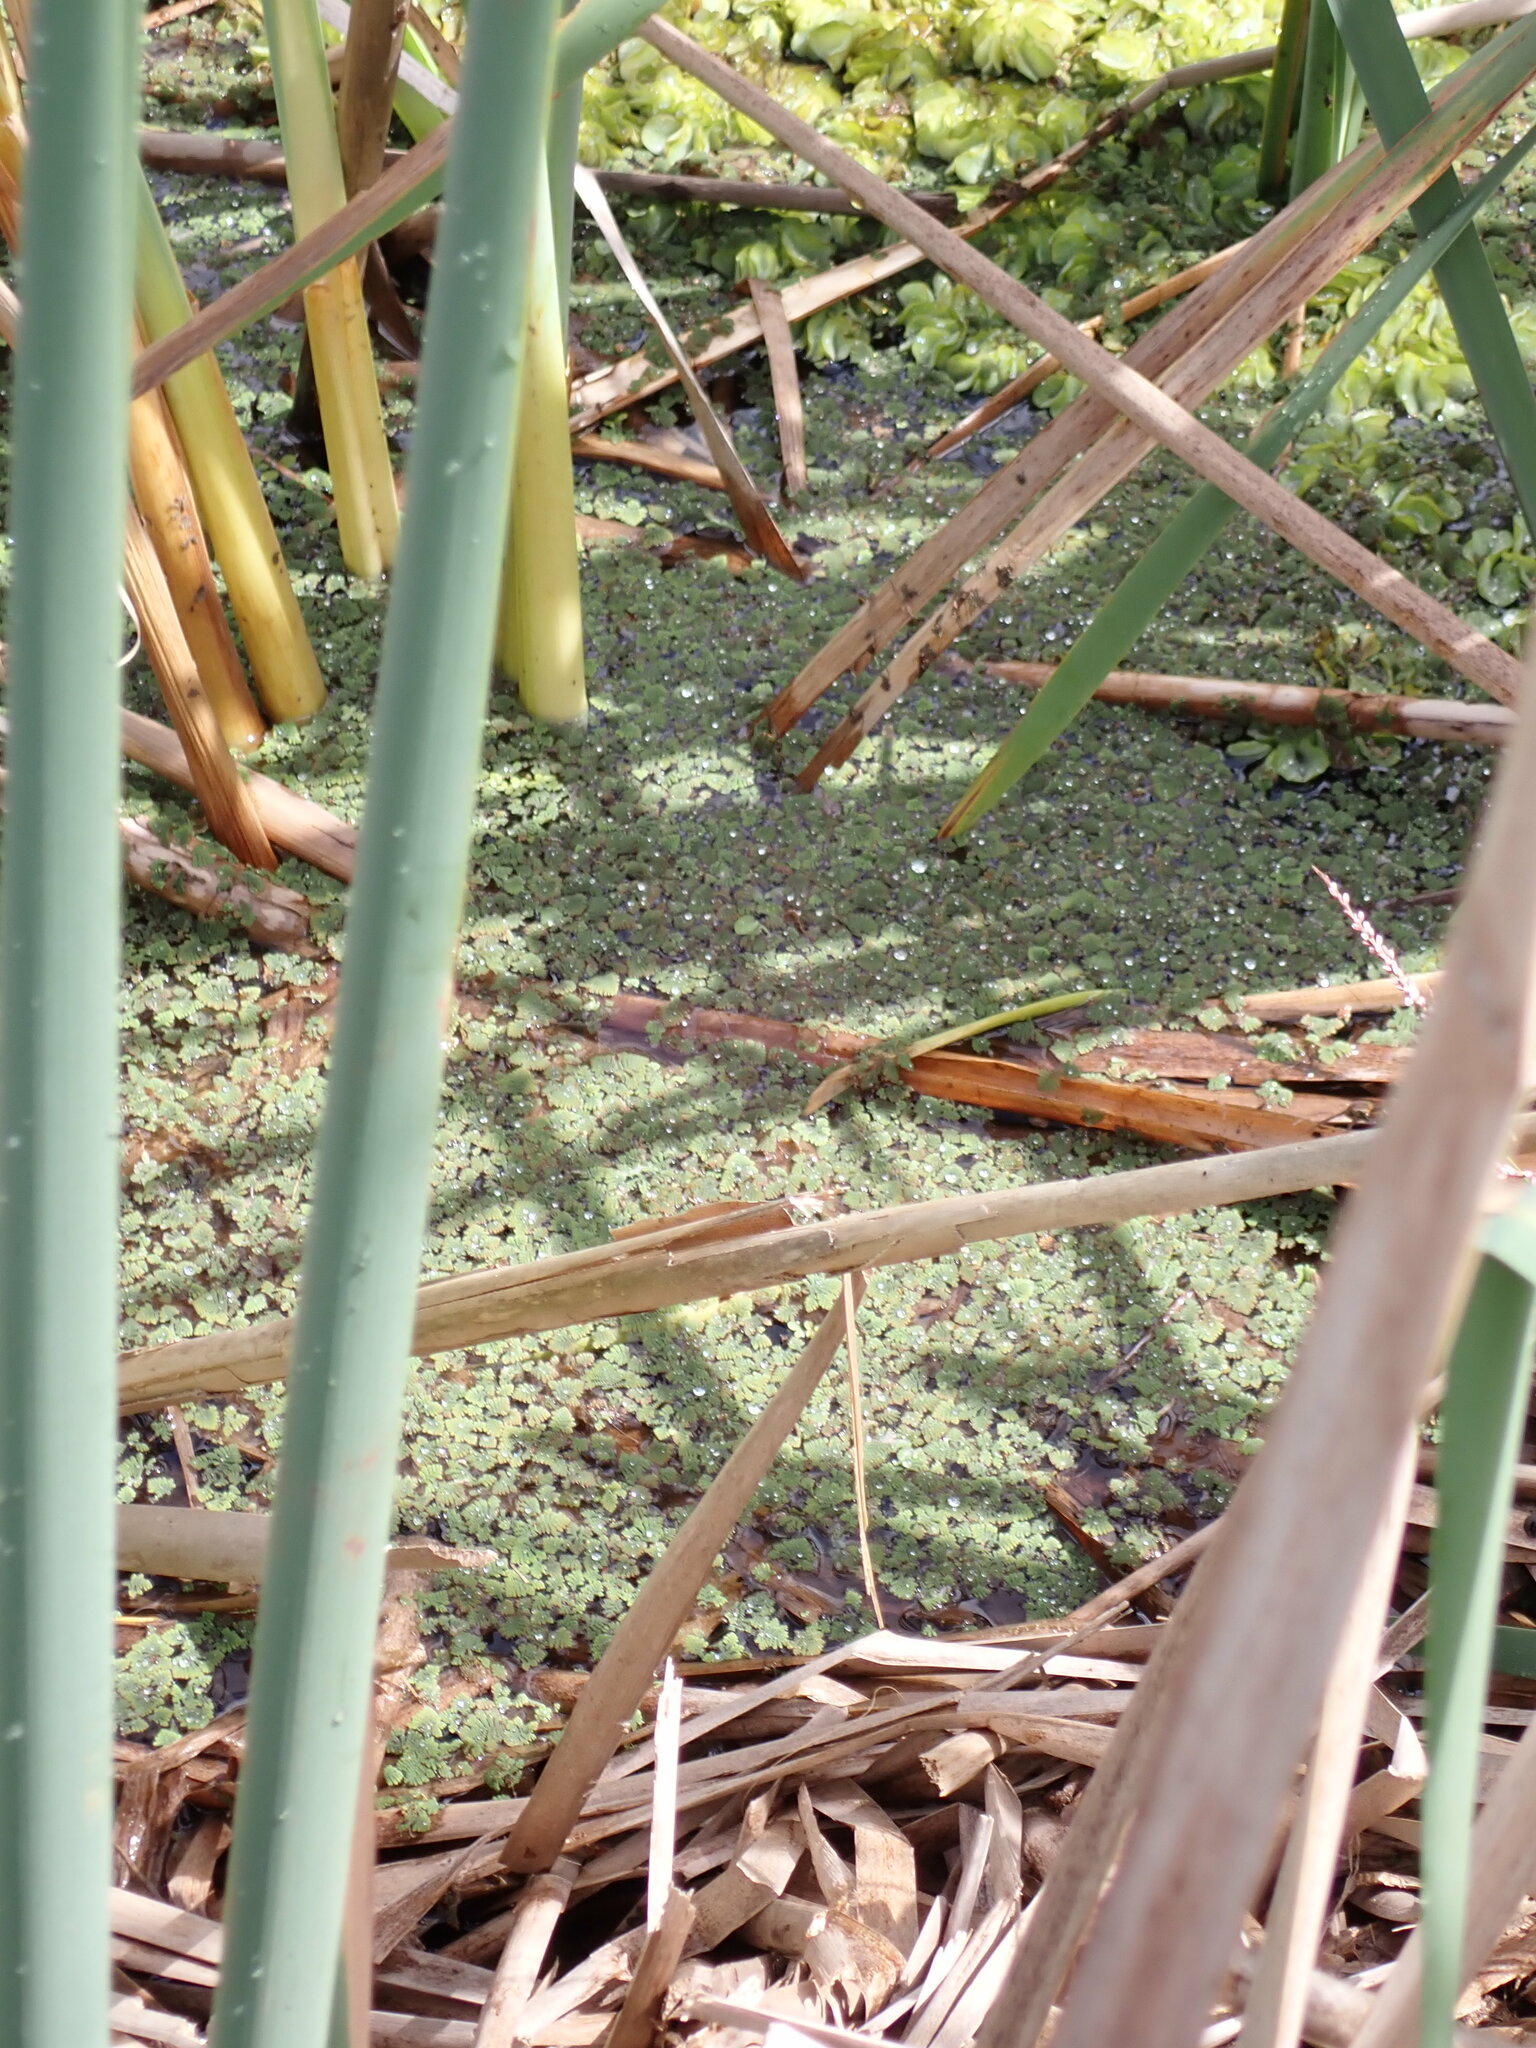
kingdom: Plantae
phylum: Tracheophyta
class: Polypodiopsida
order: Salviniales
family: Salviniaceae
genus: Azolla
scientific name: Azolla pinnata
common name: Ferny azolla
